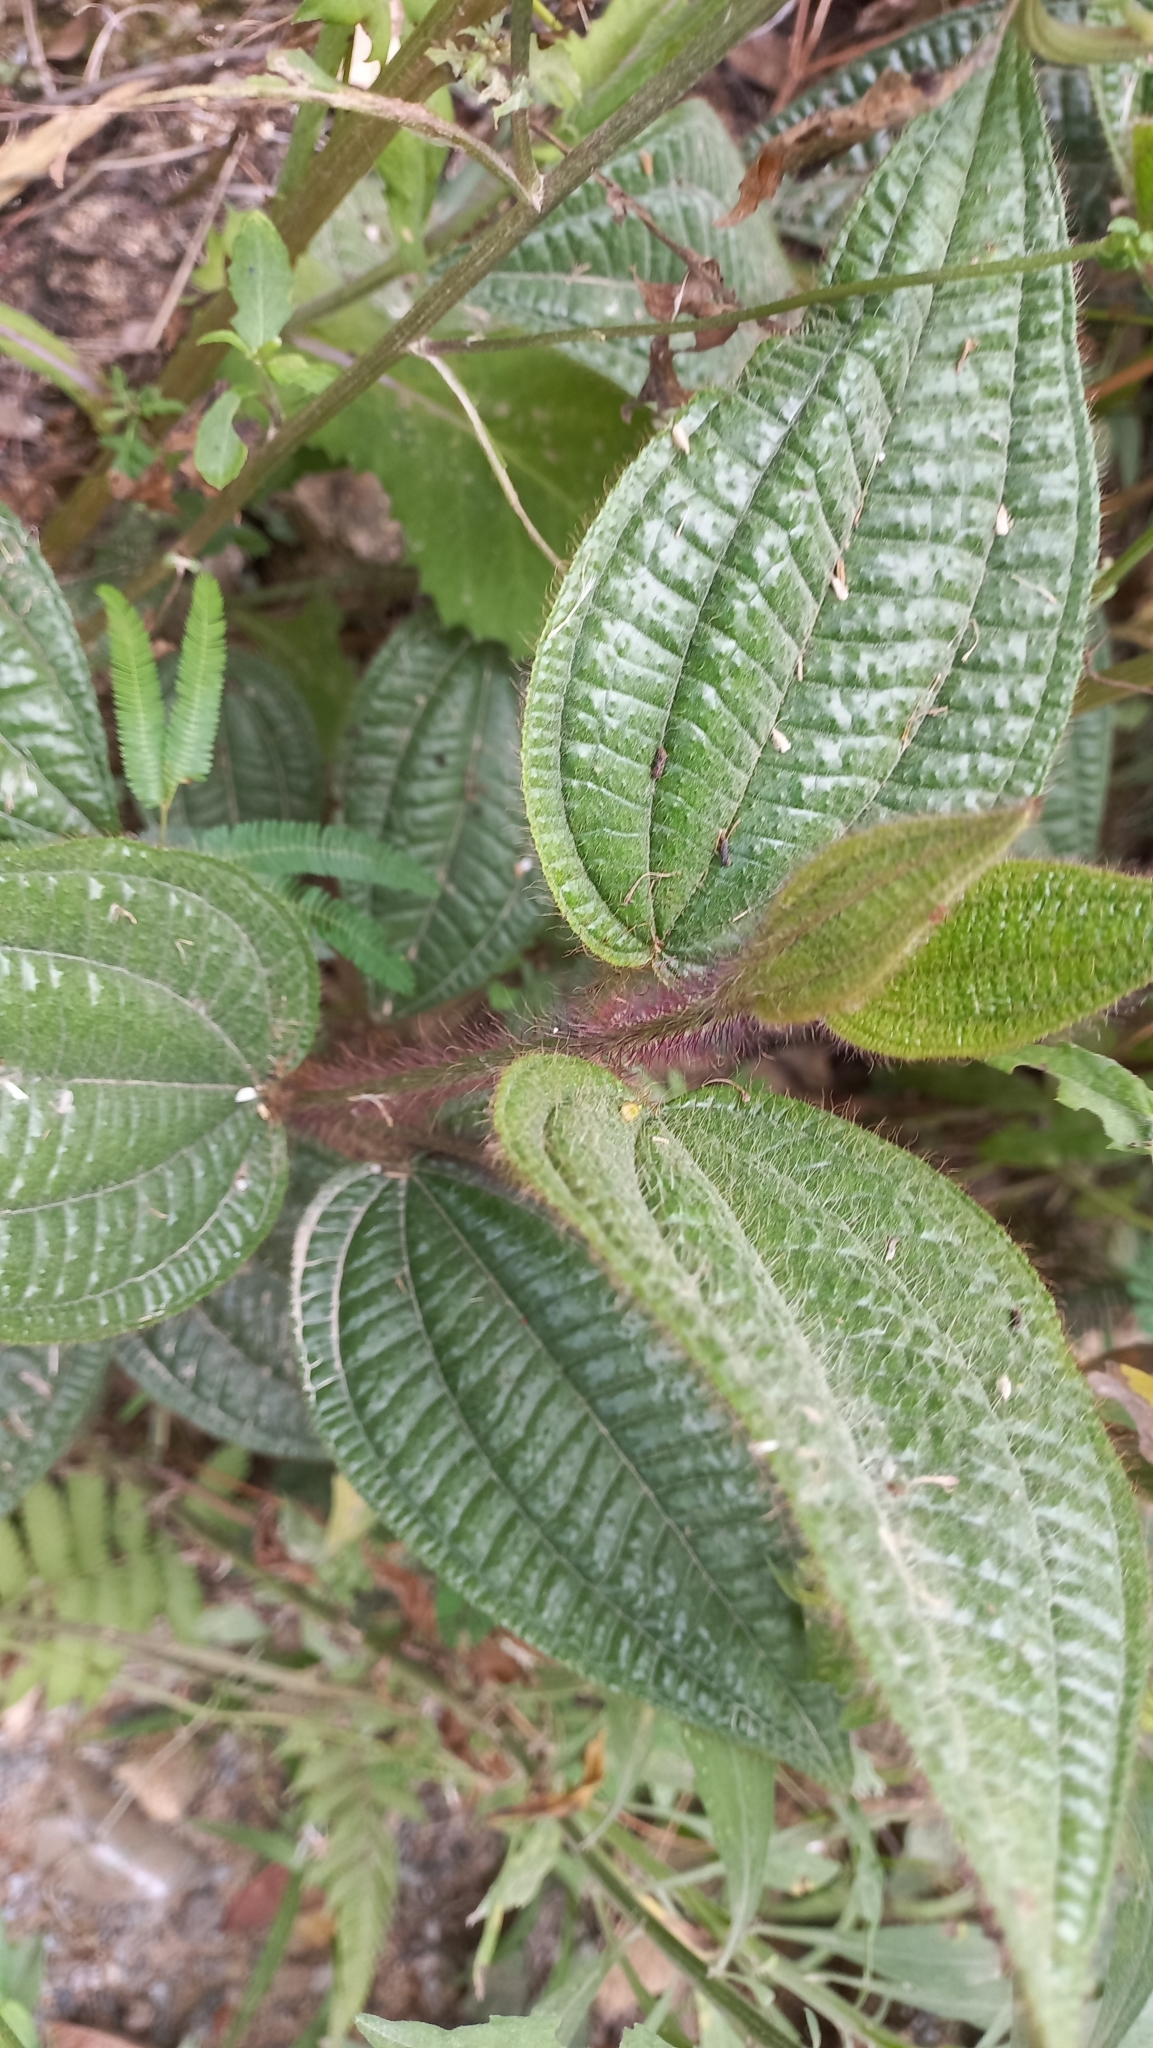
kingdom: Plantae
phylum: Tracheophyta
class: Magnoliopsida
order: Myrtales
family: Melastomataceae
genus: Miconia
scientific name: Miconia australis
